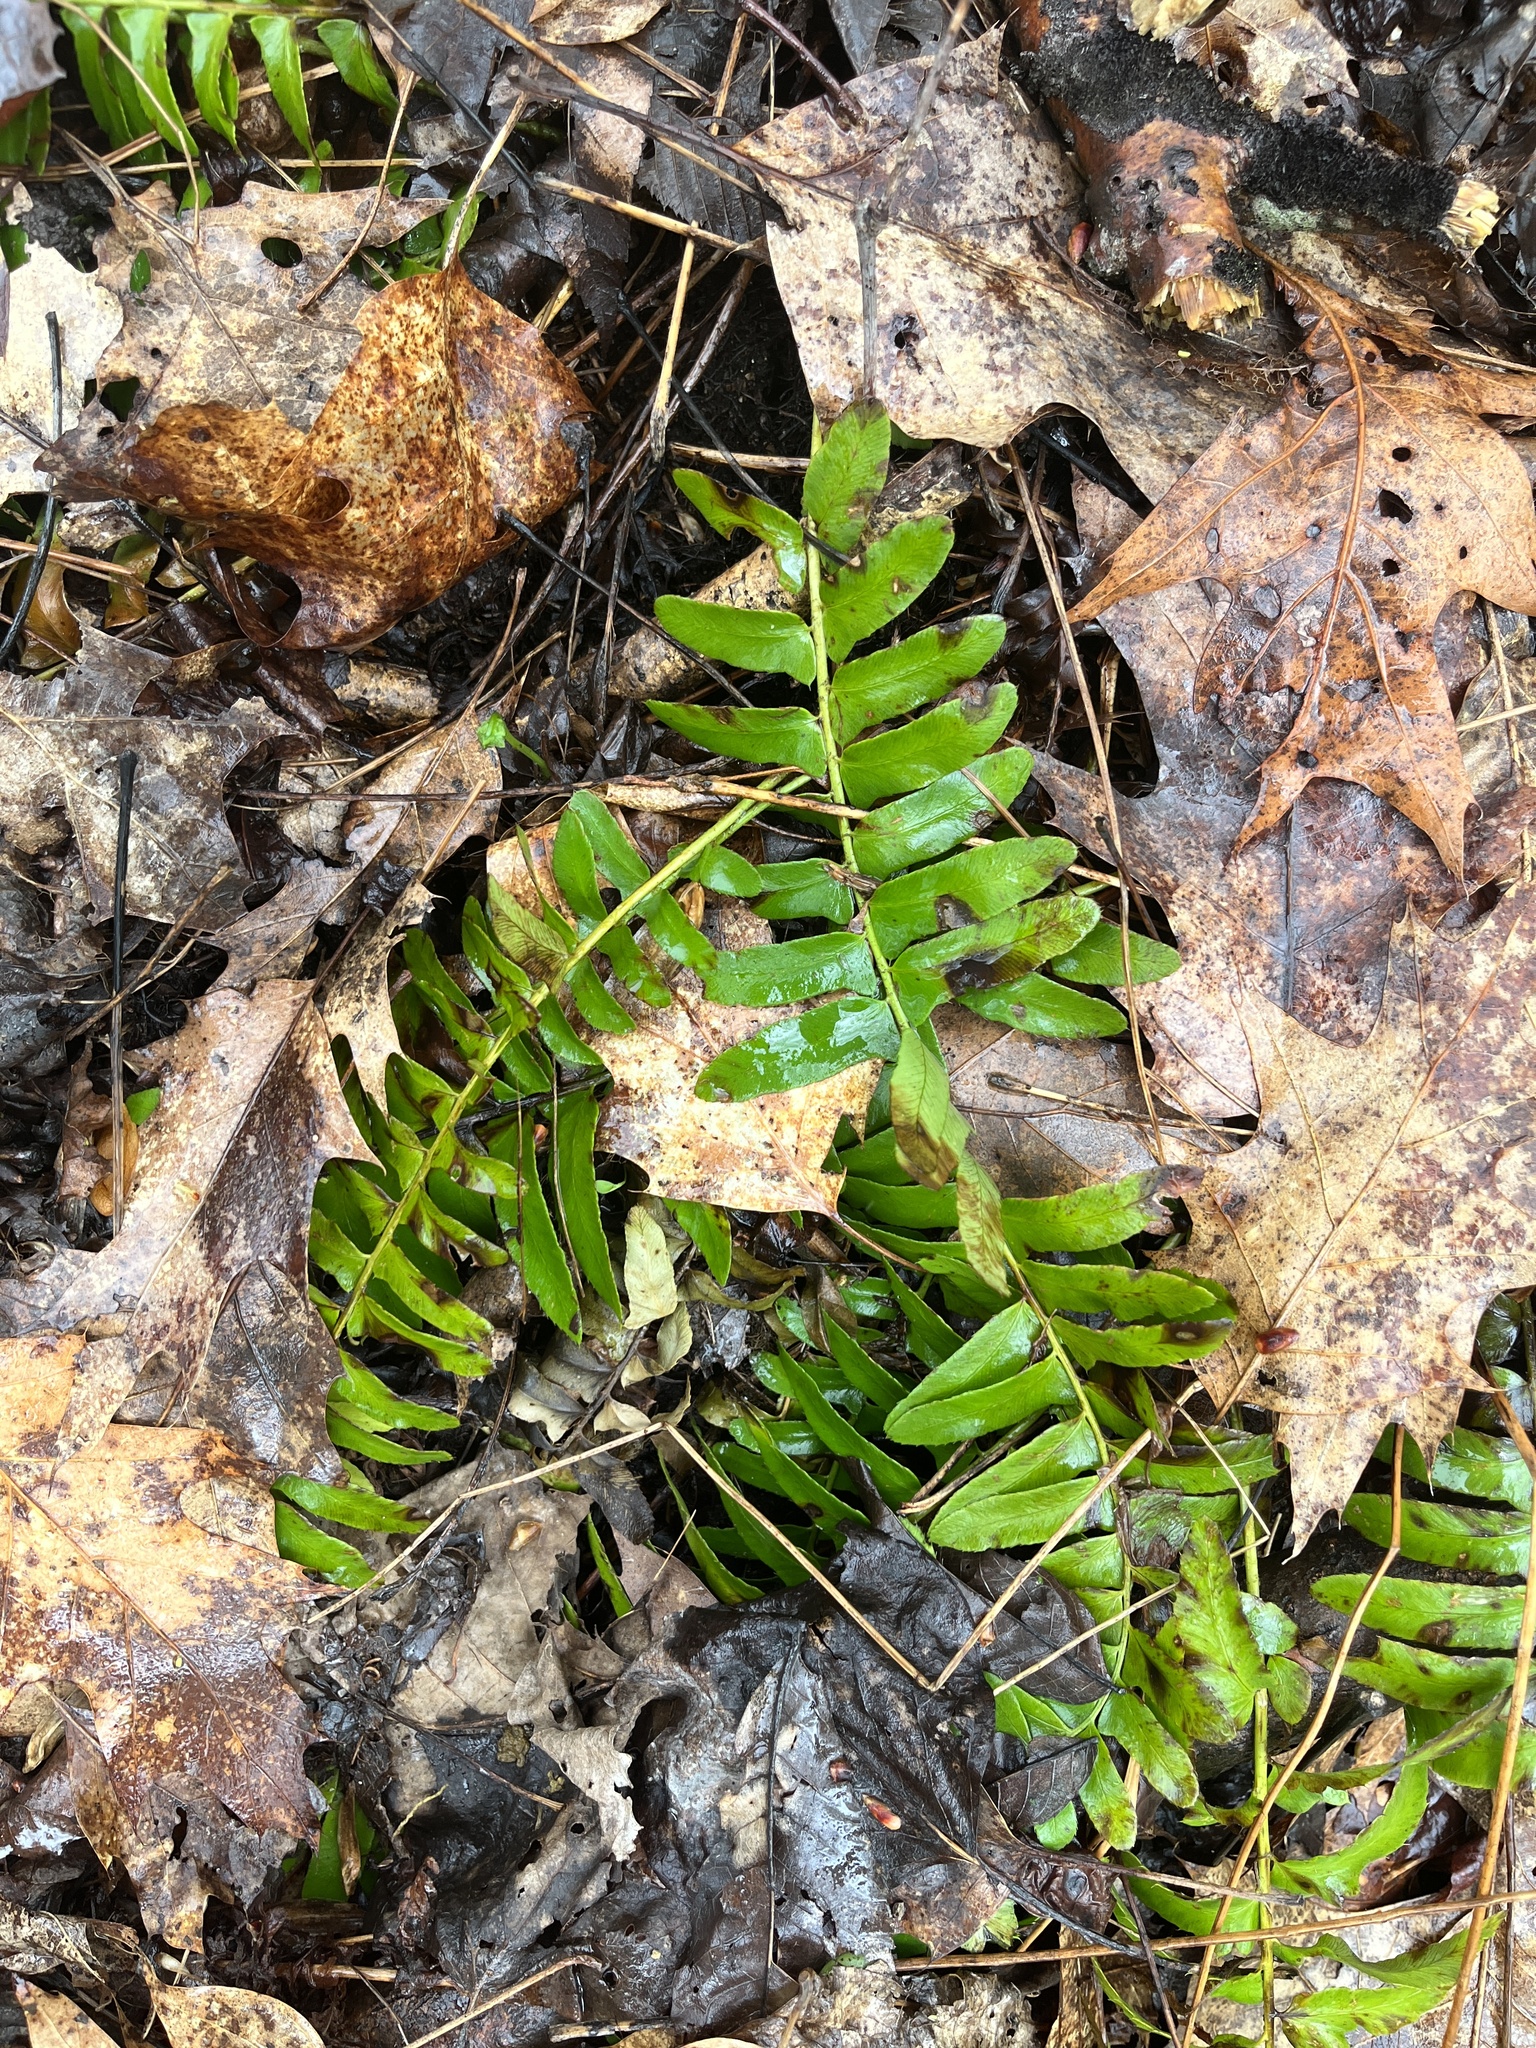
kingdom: Plantae
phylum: Tracheophyta
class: Polypodiopsida
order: Polypodiales
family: Dryopteridaceae
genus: Polystichum
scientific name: Polystichum acrostichoides
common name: Christmas fern
